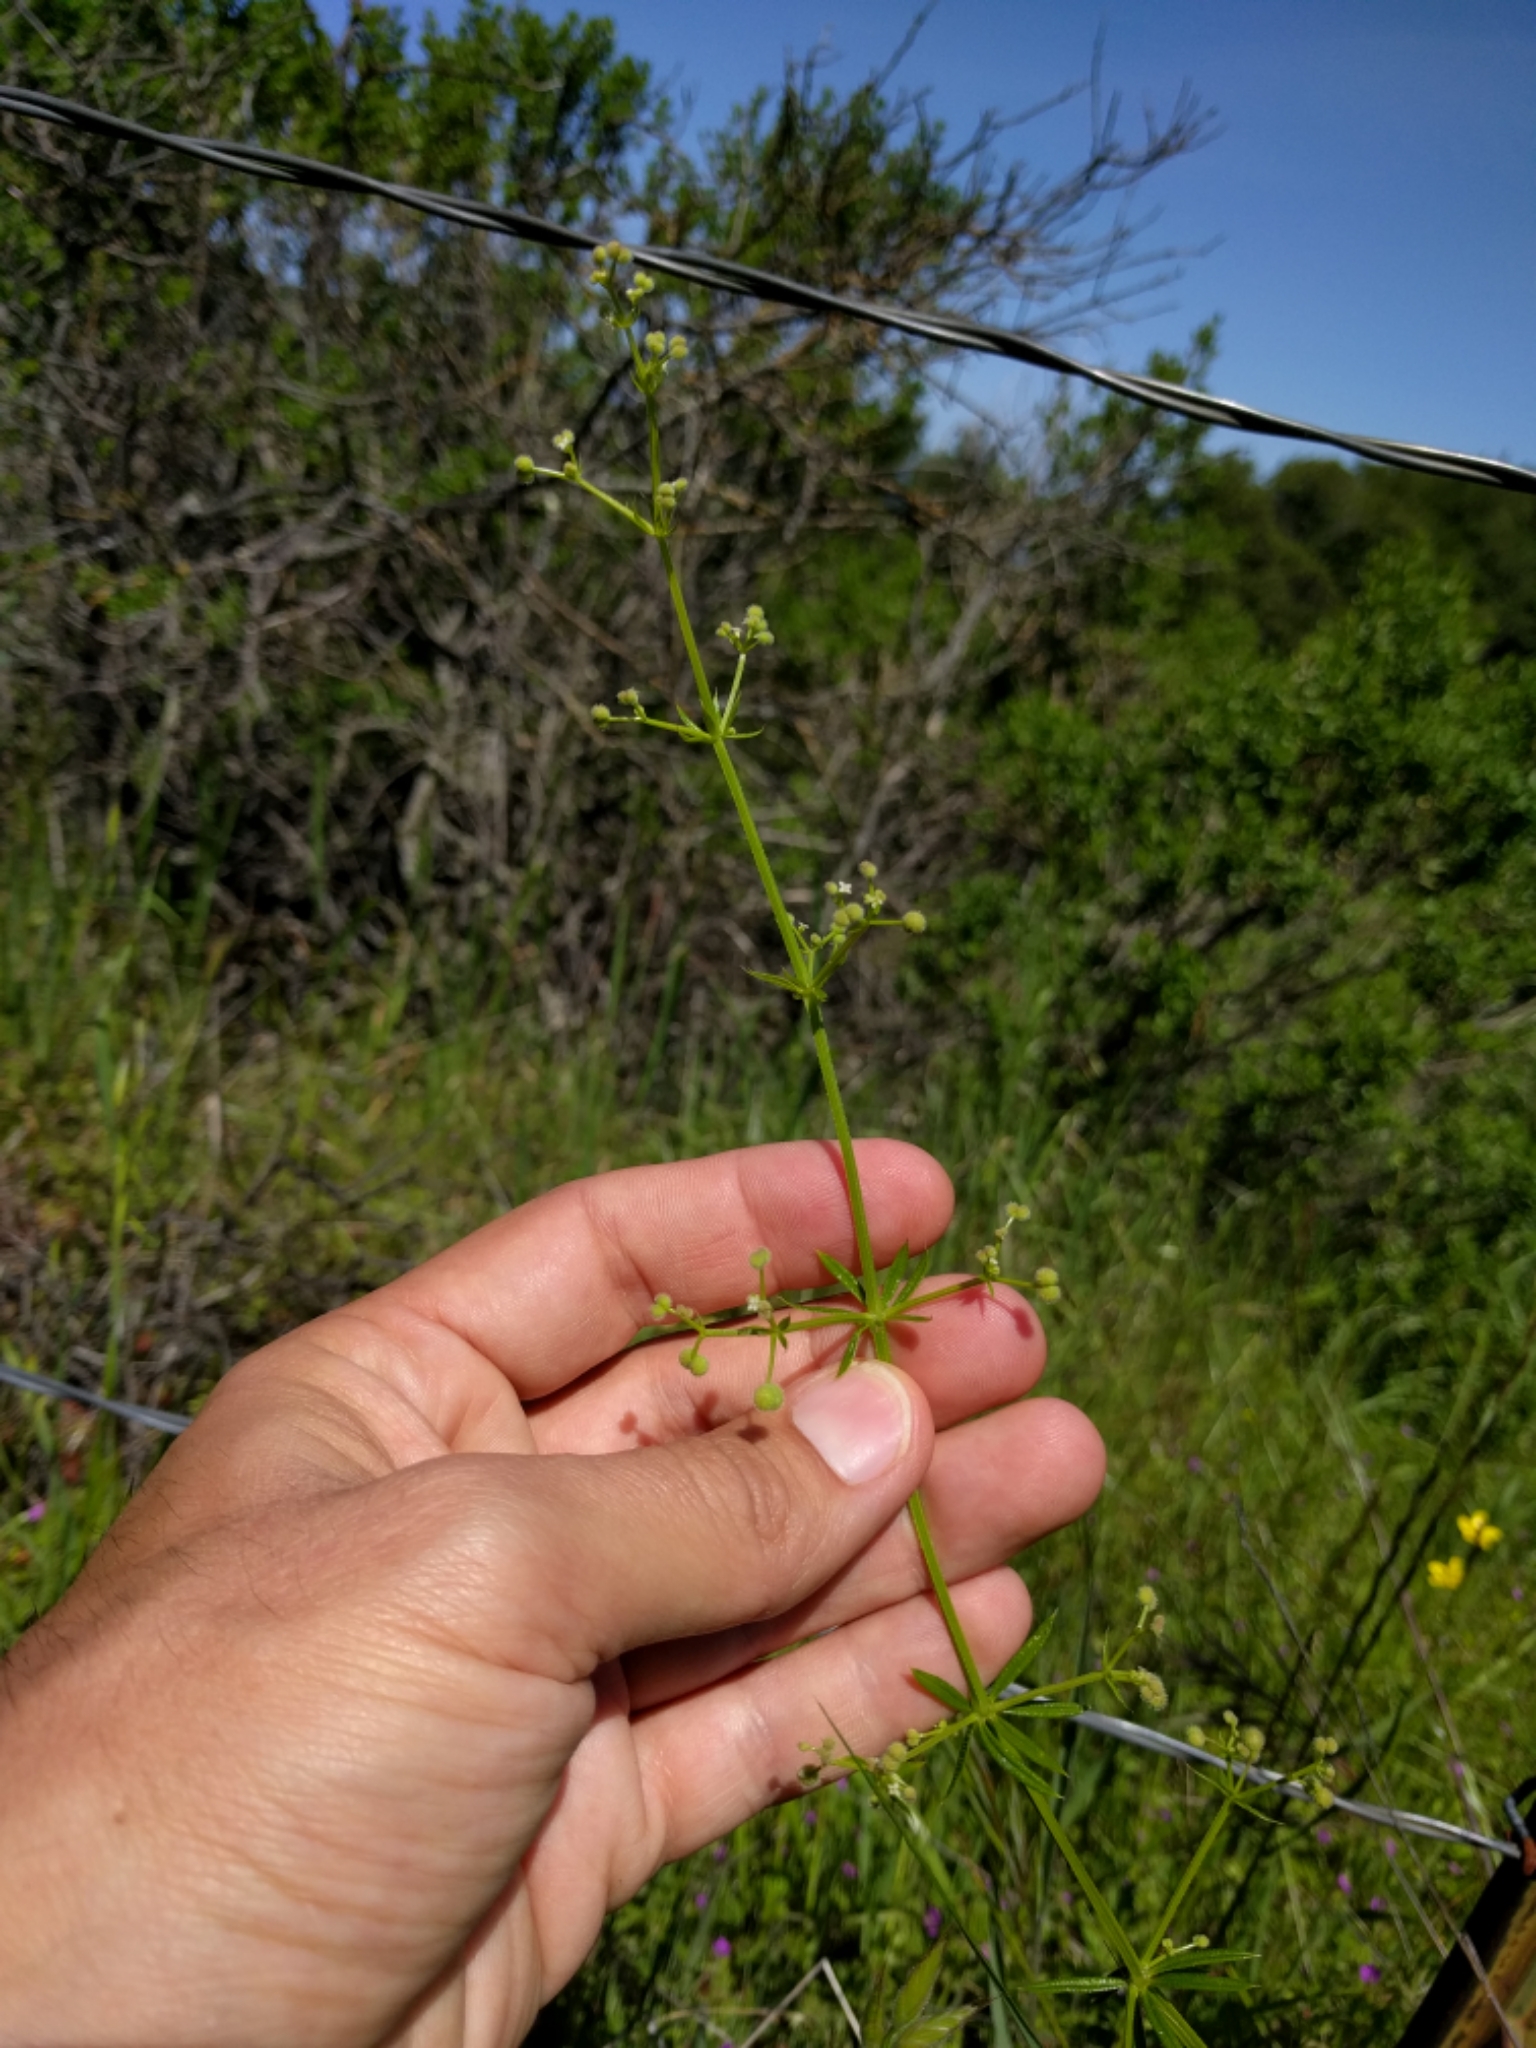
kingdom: Plantae
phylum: Tracheophyta
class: Magnoliopsida
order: Gentianales
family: Rubiaceae
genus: Galium
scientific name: Galium aparine
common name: Cleavers
